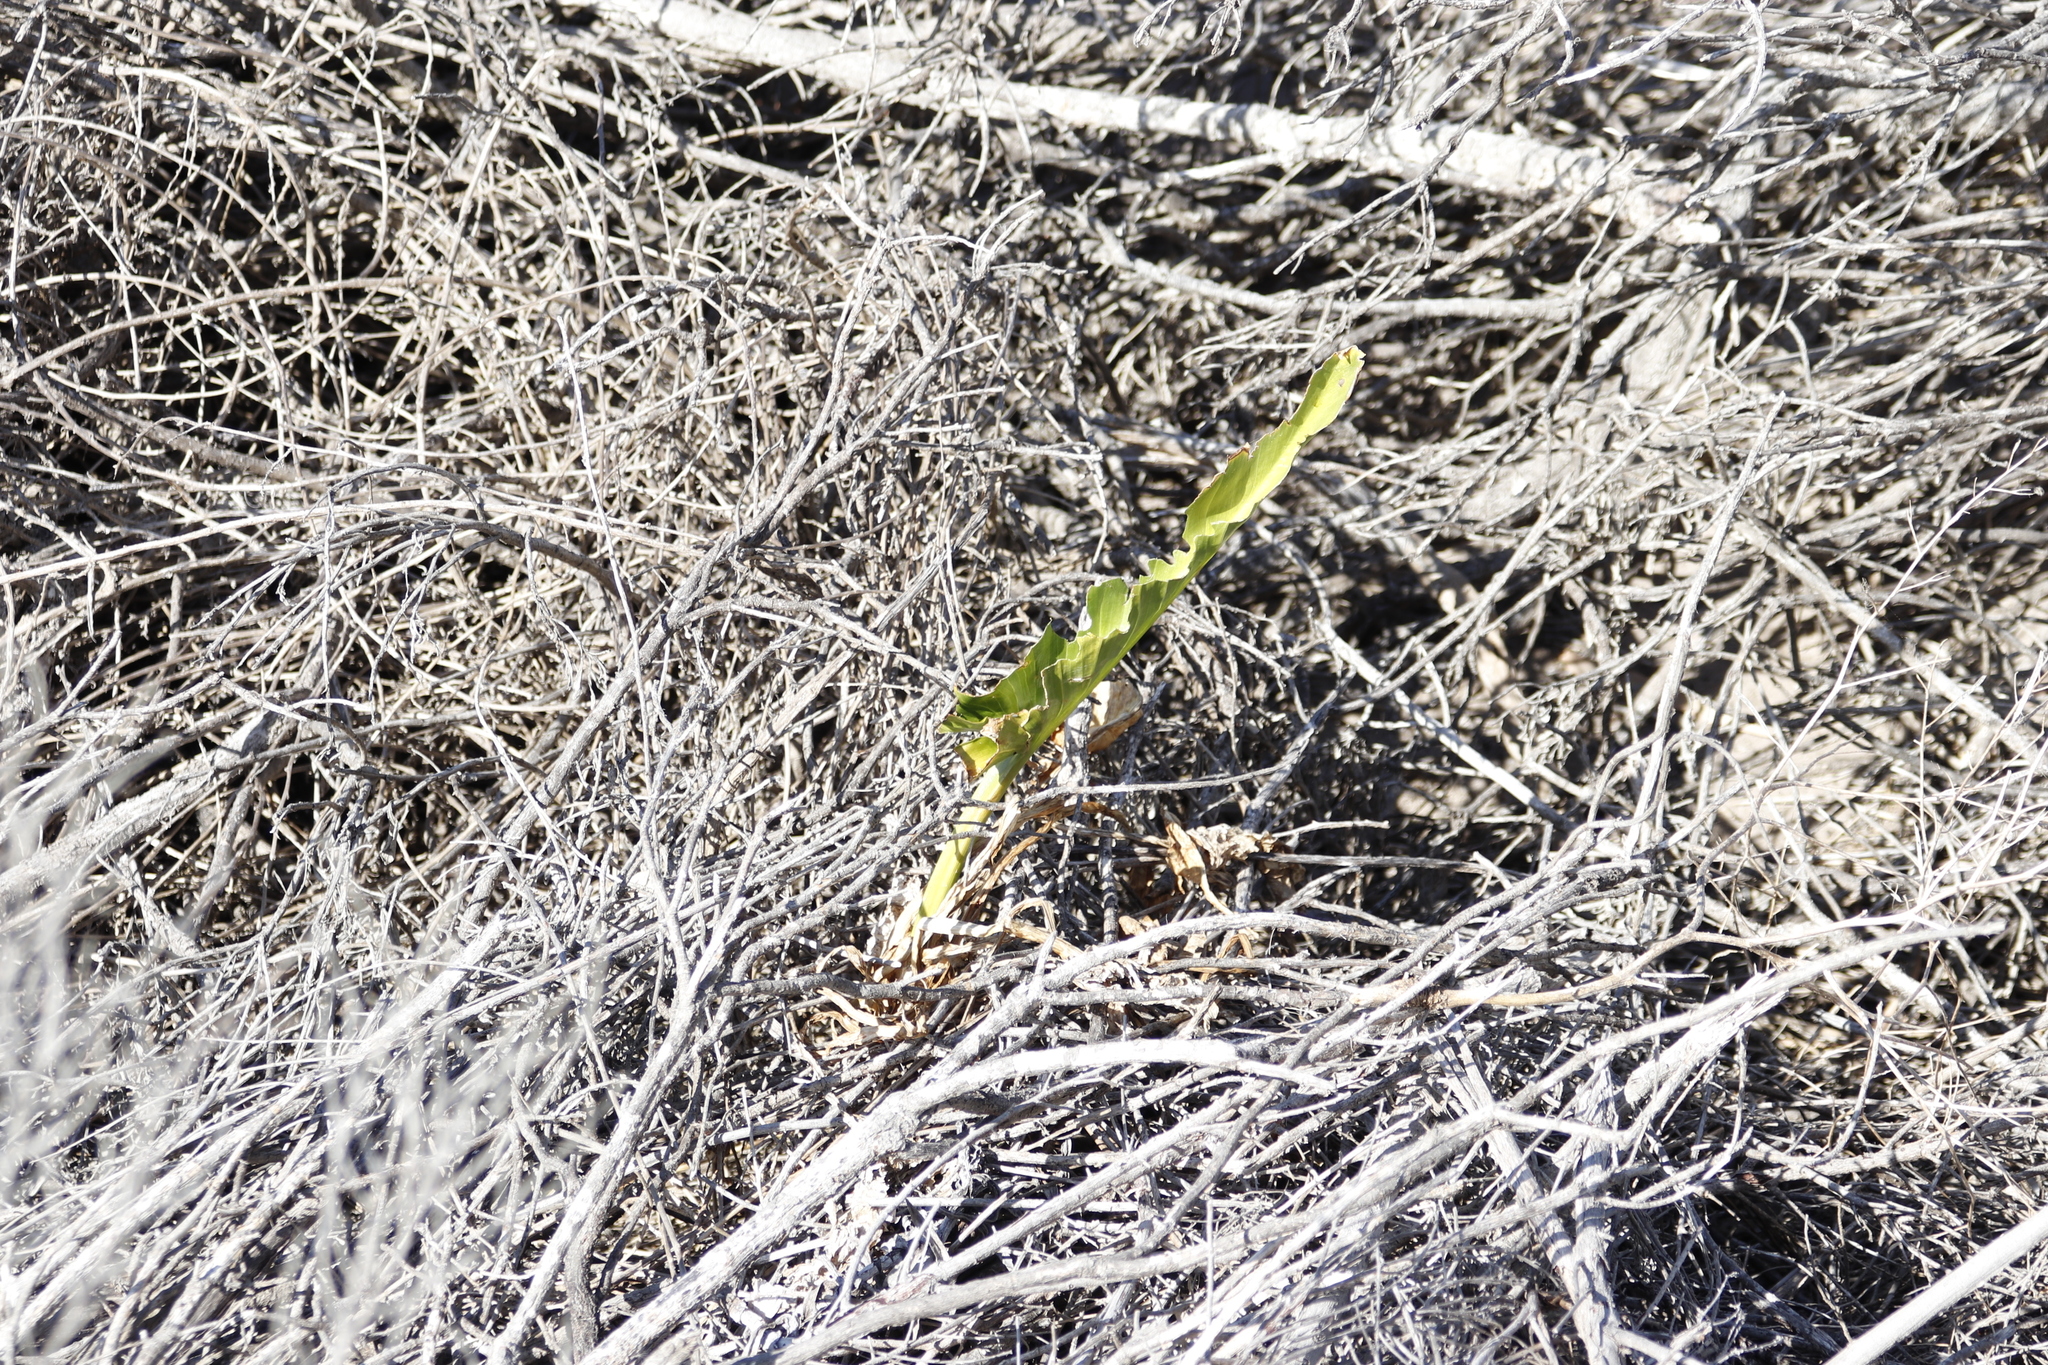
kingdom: Plantae
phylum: Tracheophyta
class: Liliopsida
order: Alismatales
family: Araceae
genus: Zantedeschia
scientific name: Zantedeschia aethiopica
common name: Altar-lily
